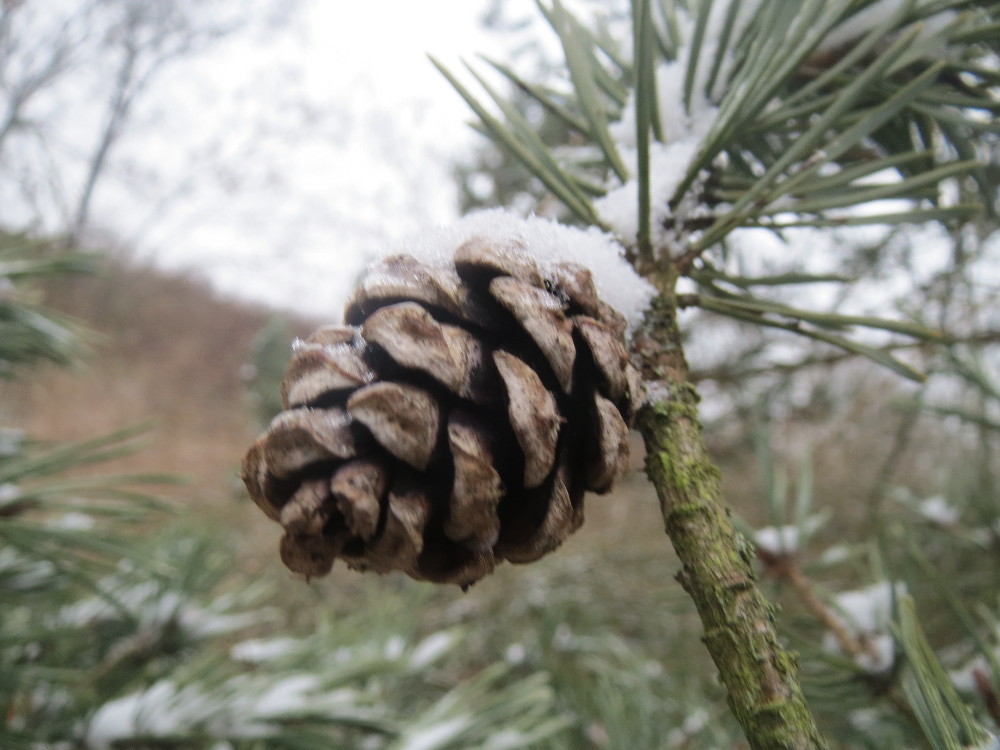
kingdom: Plantae
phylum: Tracheophyta
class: Pinopsida
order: Pinales
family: Pinaceae
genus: Pinus
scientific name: Pinus sylvestris
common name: Scots pine
